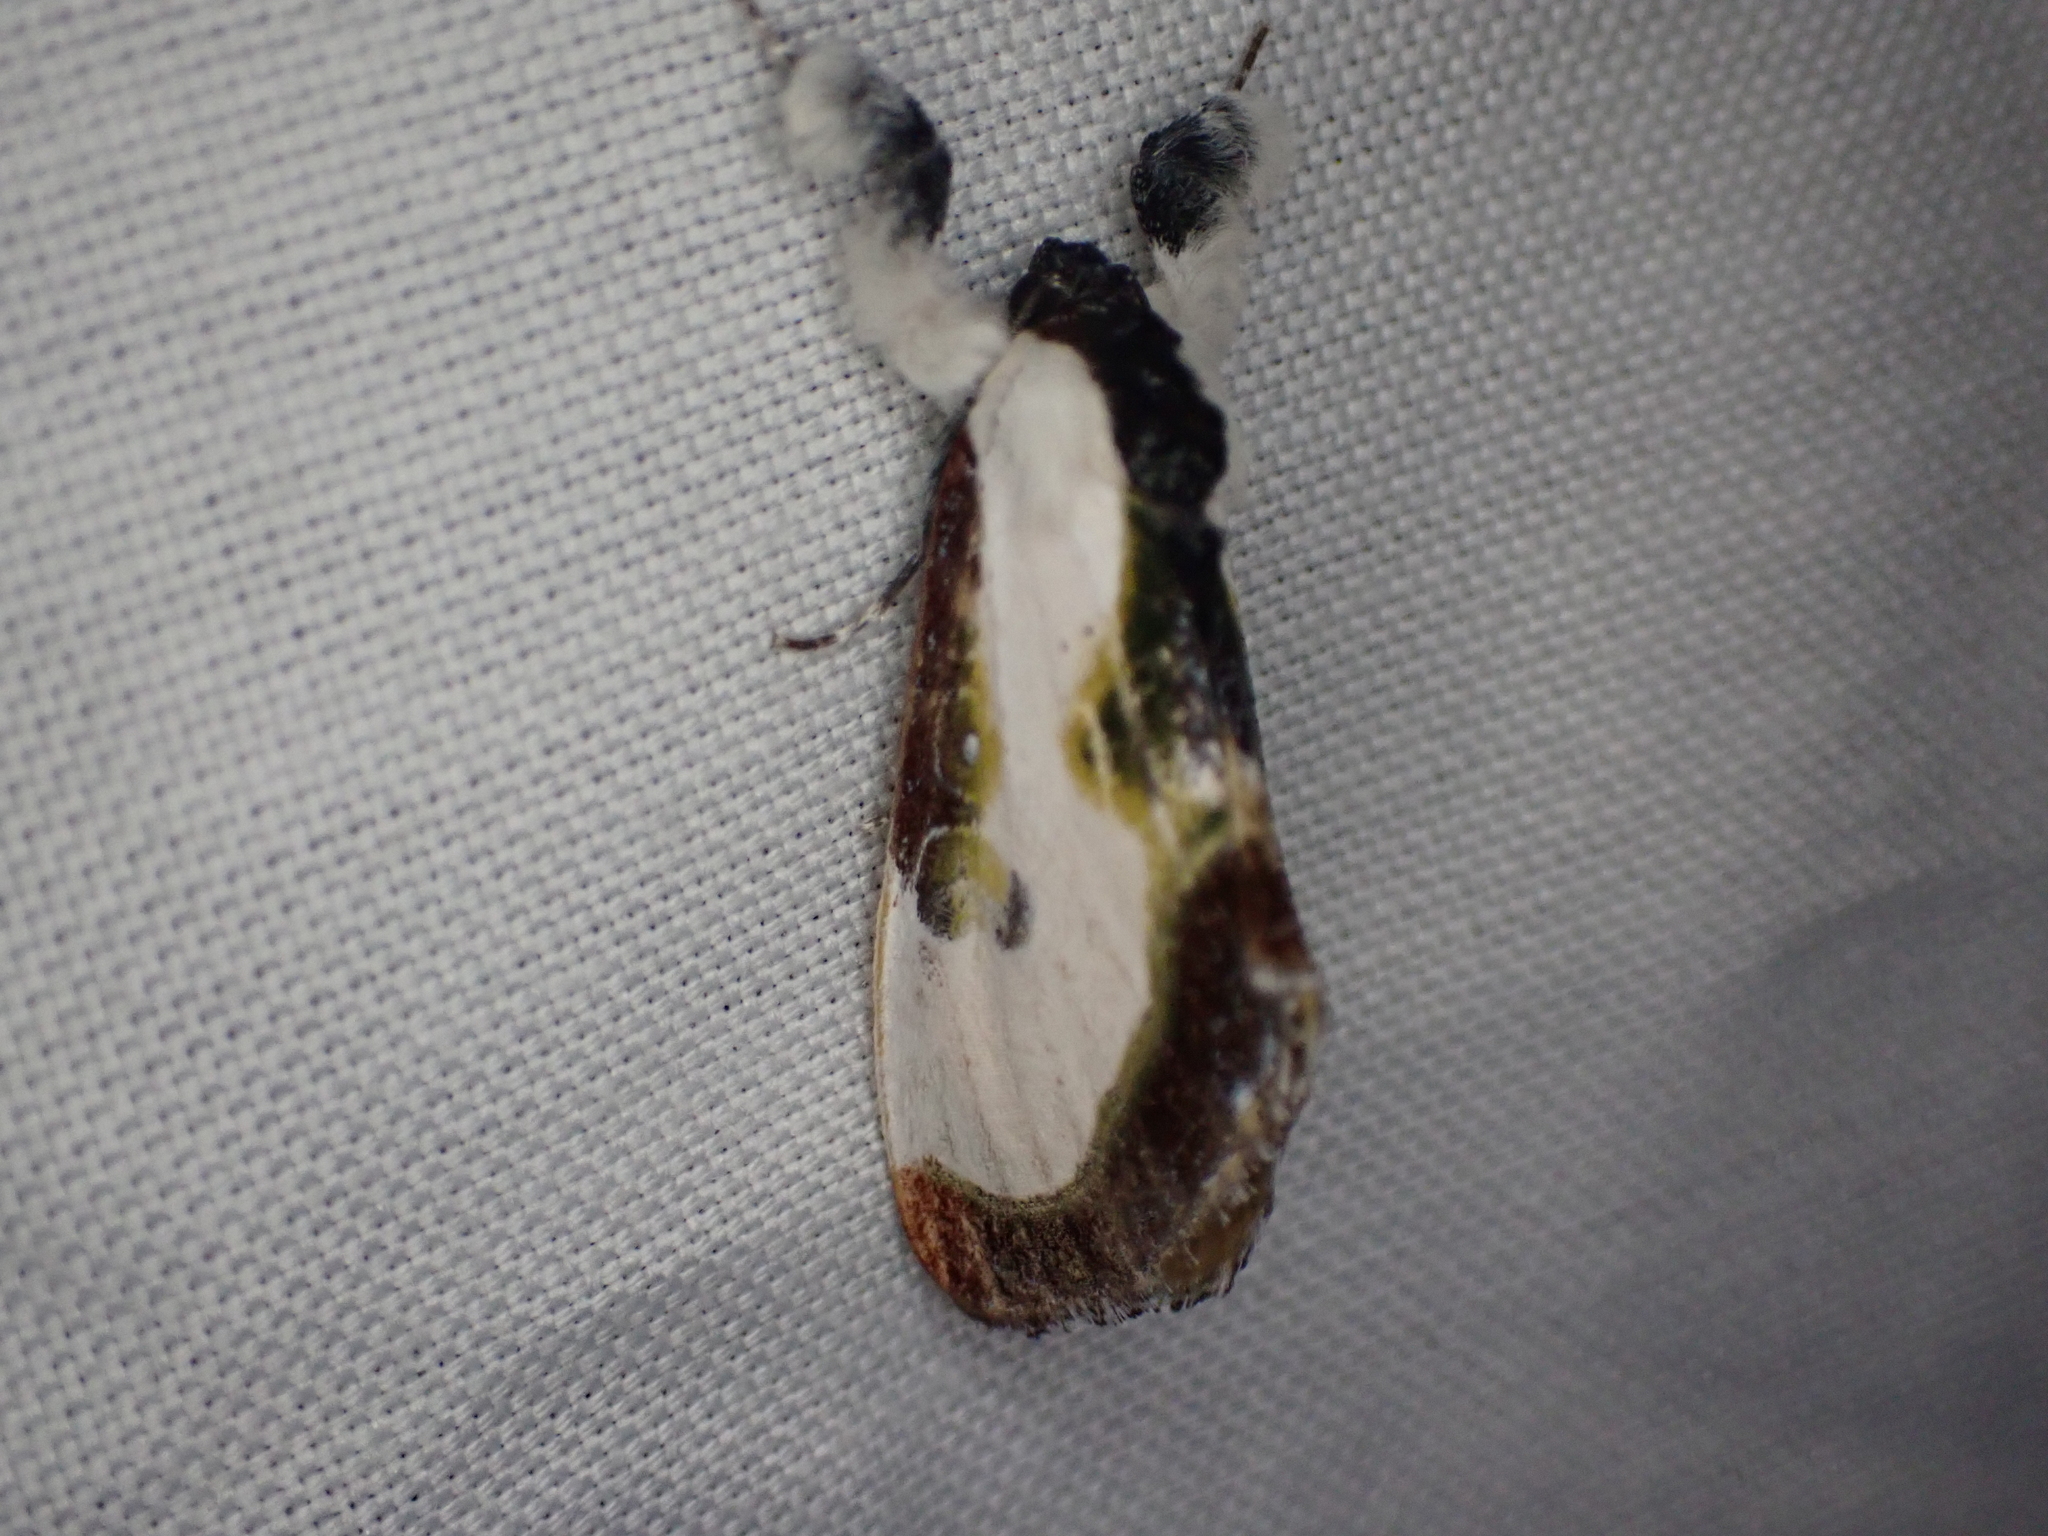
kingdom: Animalia
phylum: Arthropoda
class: Insecta
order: Lepidoptera
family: Noctuidae
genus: Eudryas
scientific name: Eudryas grata
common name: Beautiful wood-nymph
